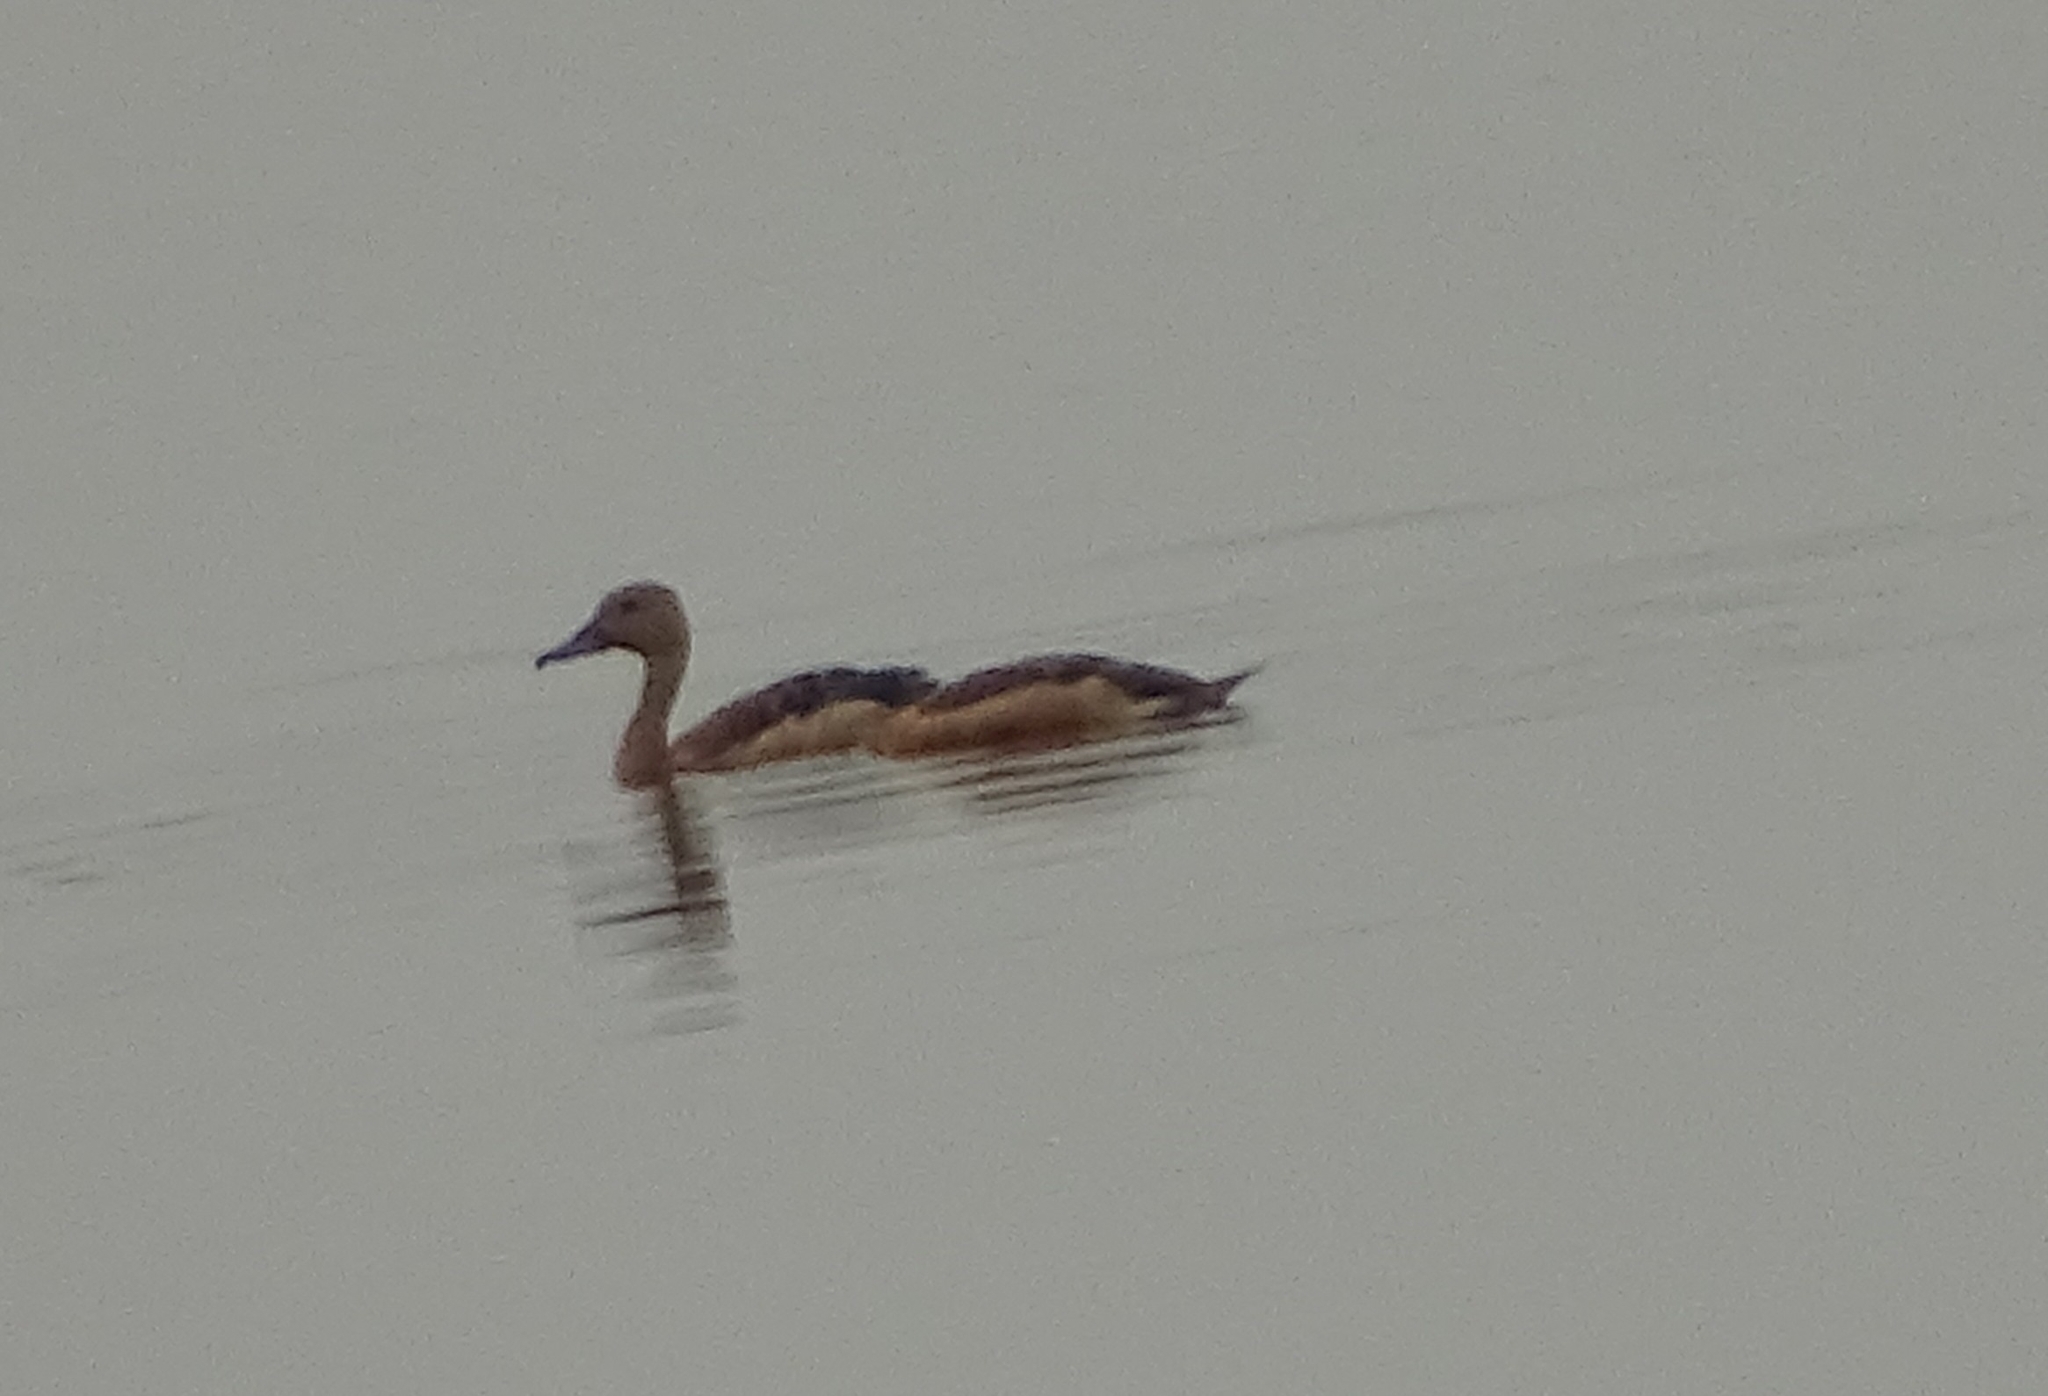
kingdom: Animalia
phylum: Chordata
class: Aves
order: Anseriformes
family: Anatidae
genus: Dendrocygna
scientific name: Dendrocygna javanica
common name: Lesser whistling-duck
